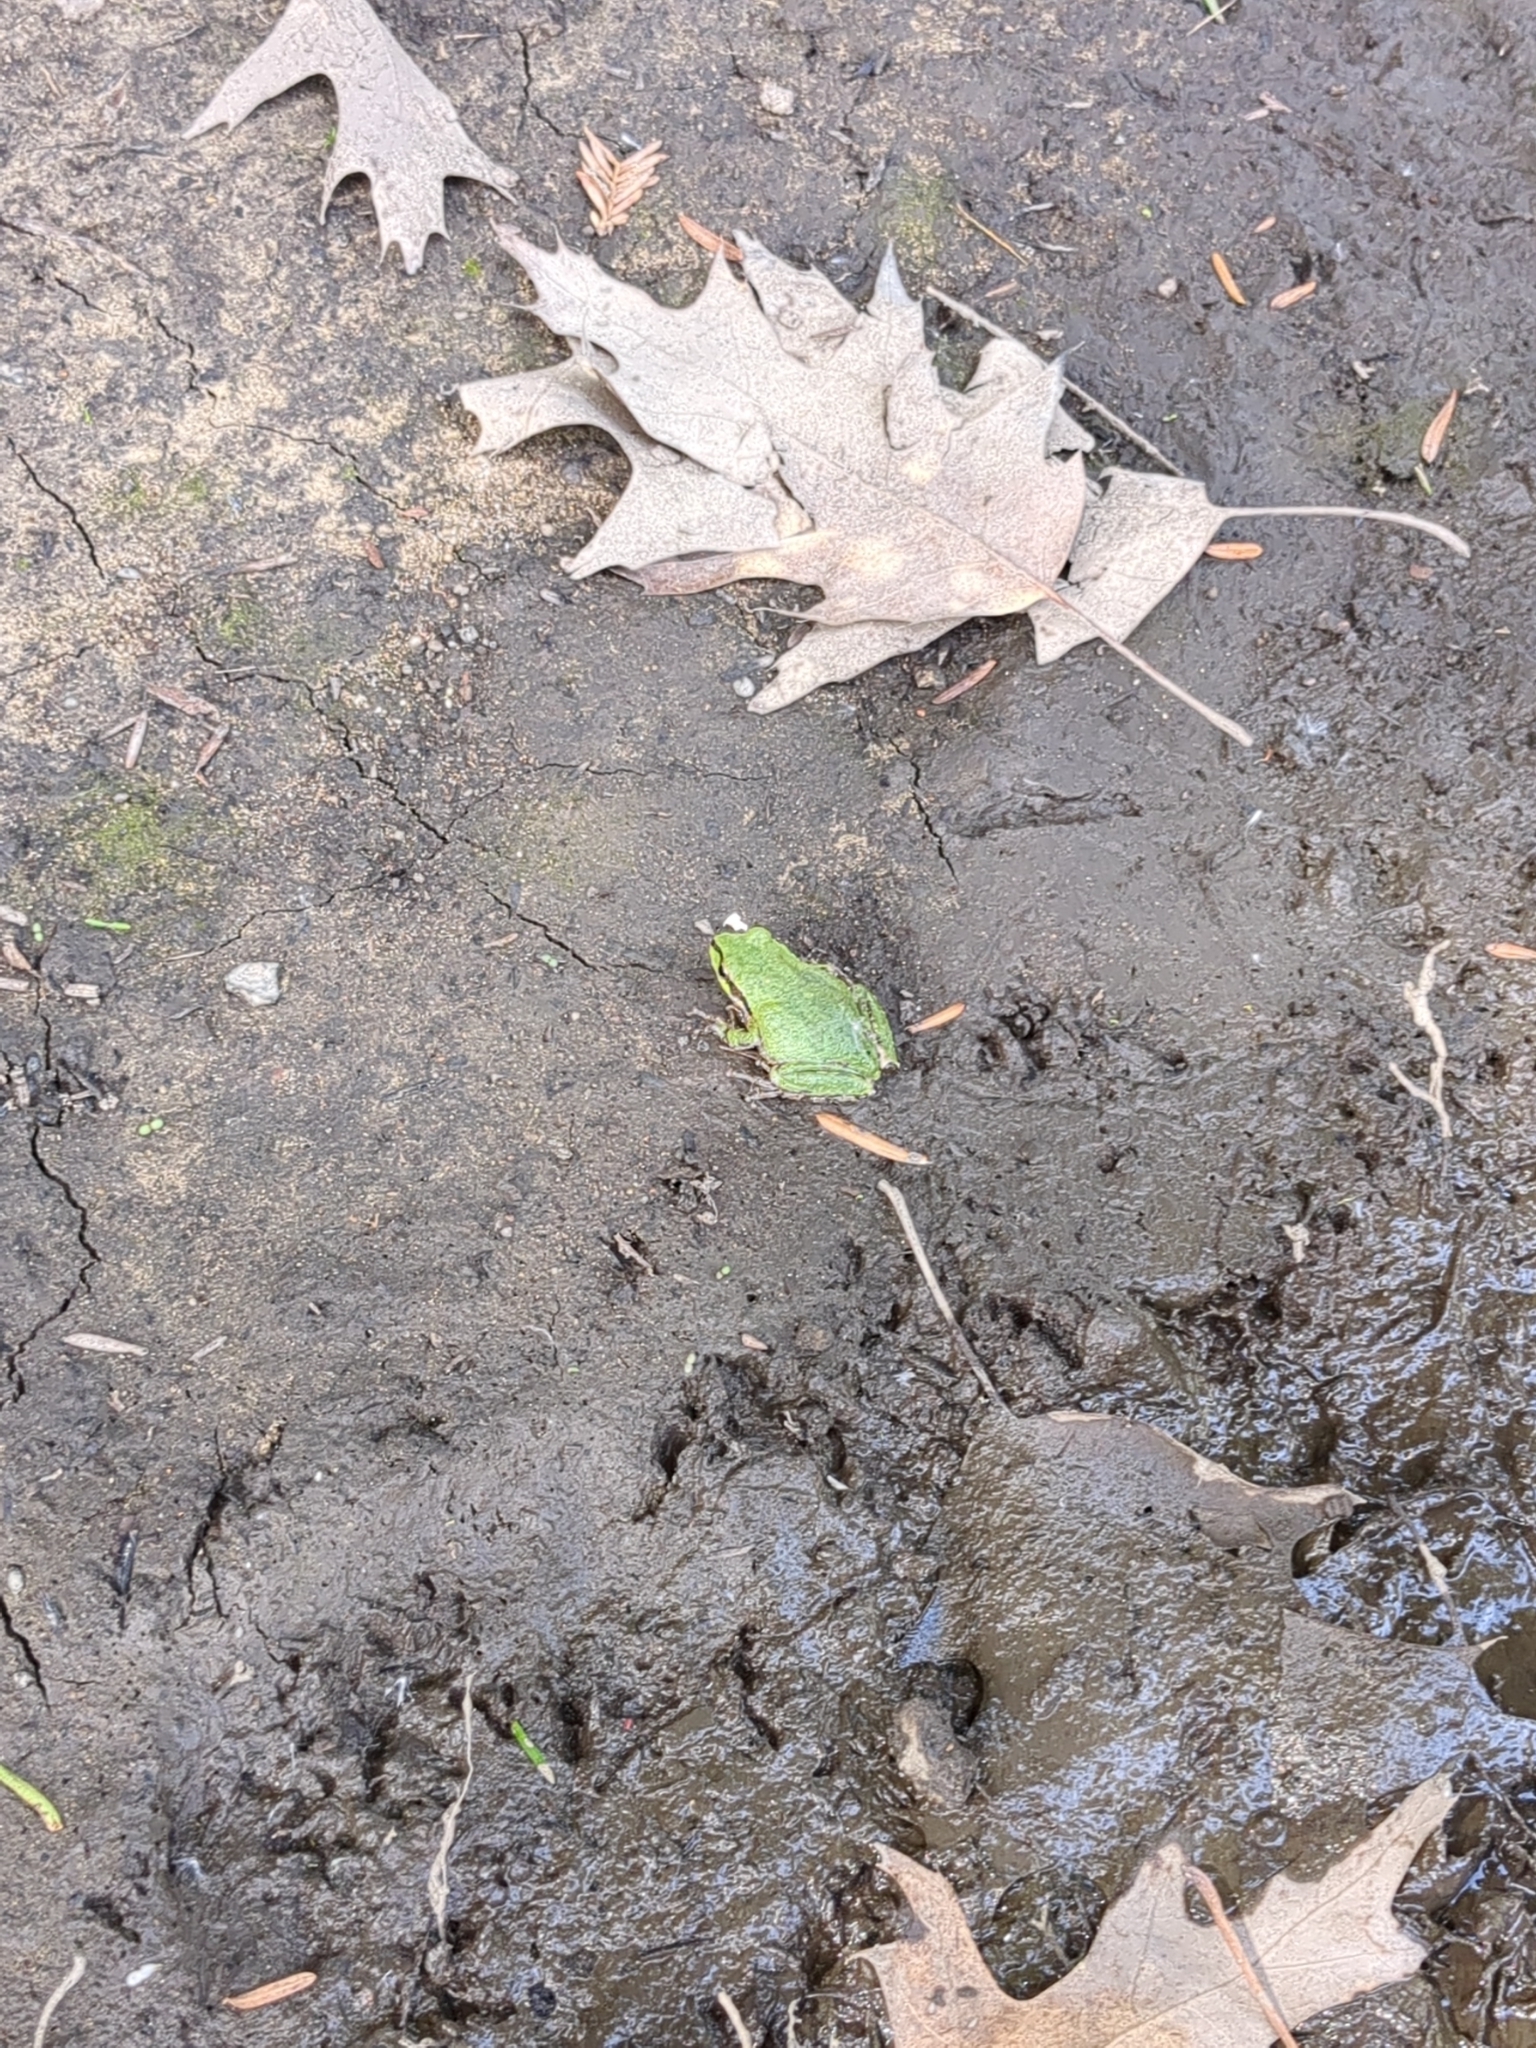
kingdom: Animalia
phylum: Chordata
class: Amphibia
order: Anura
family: Hylidae
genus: Pseudacris
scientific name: Pseudacris regilla
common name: Pacific chorus frog
